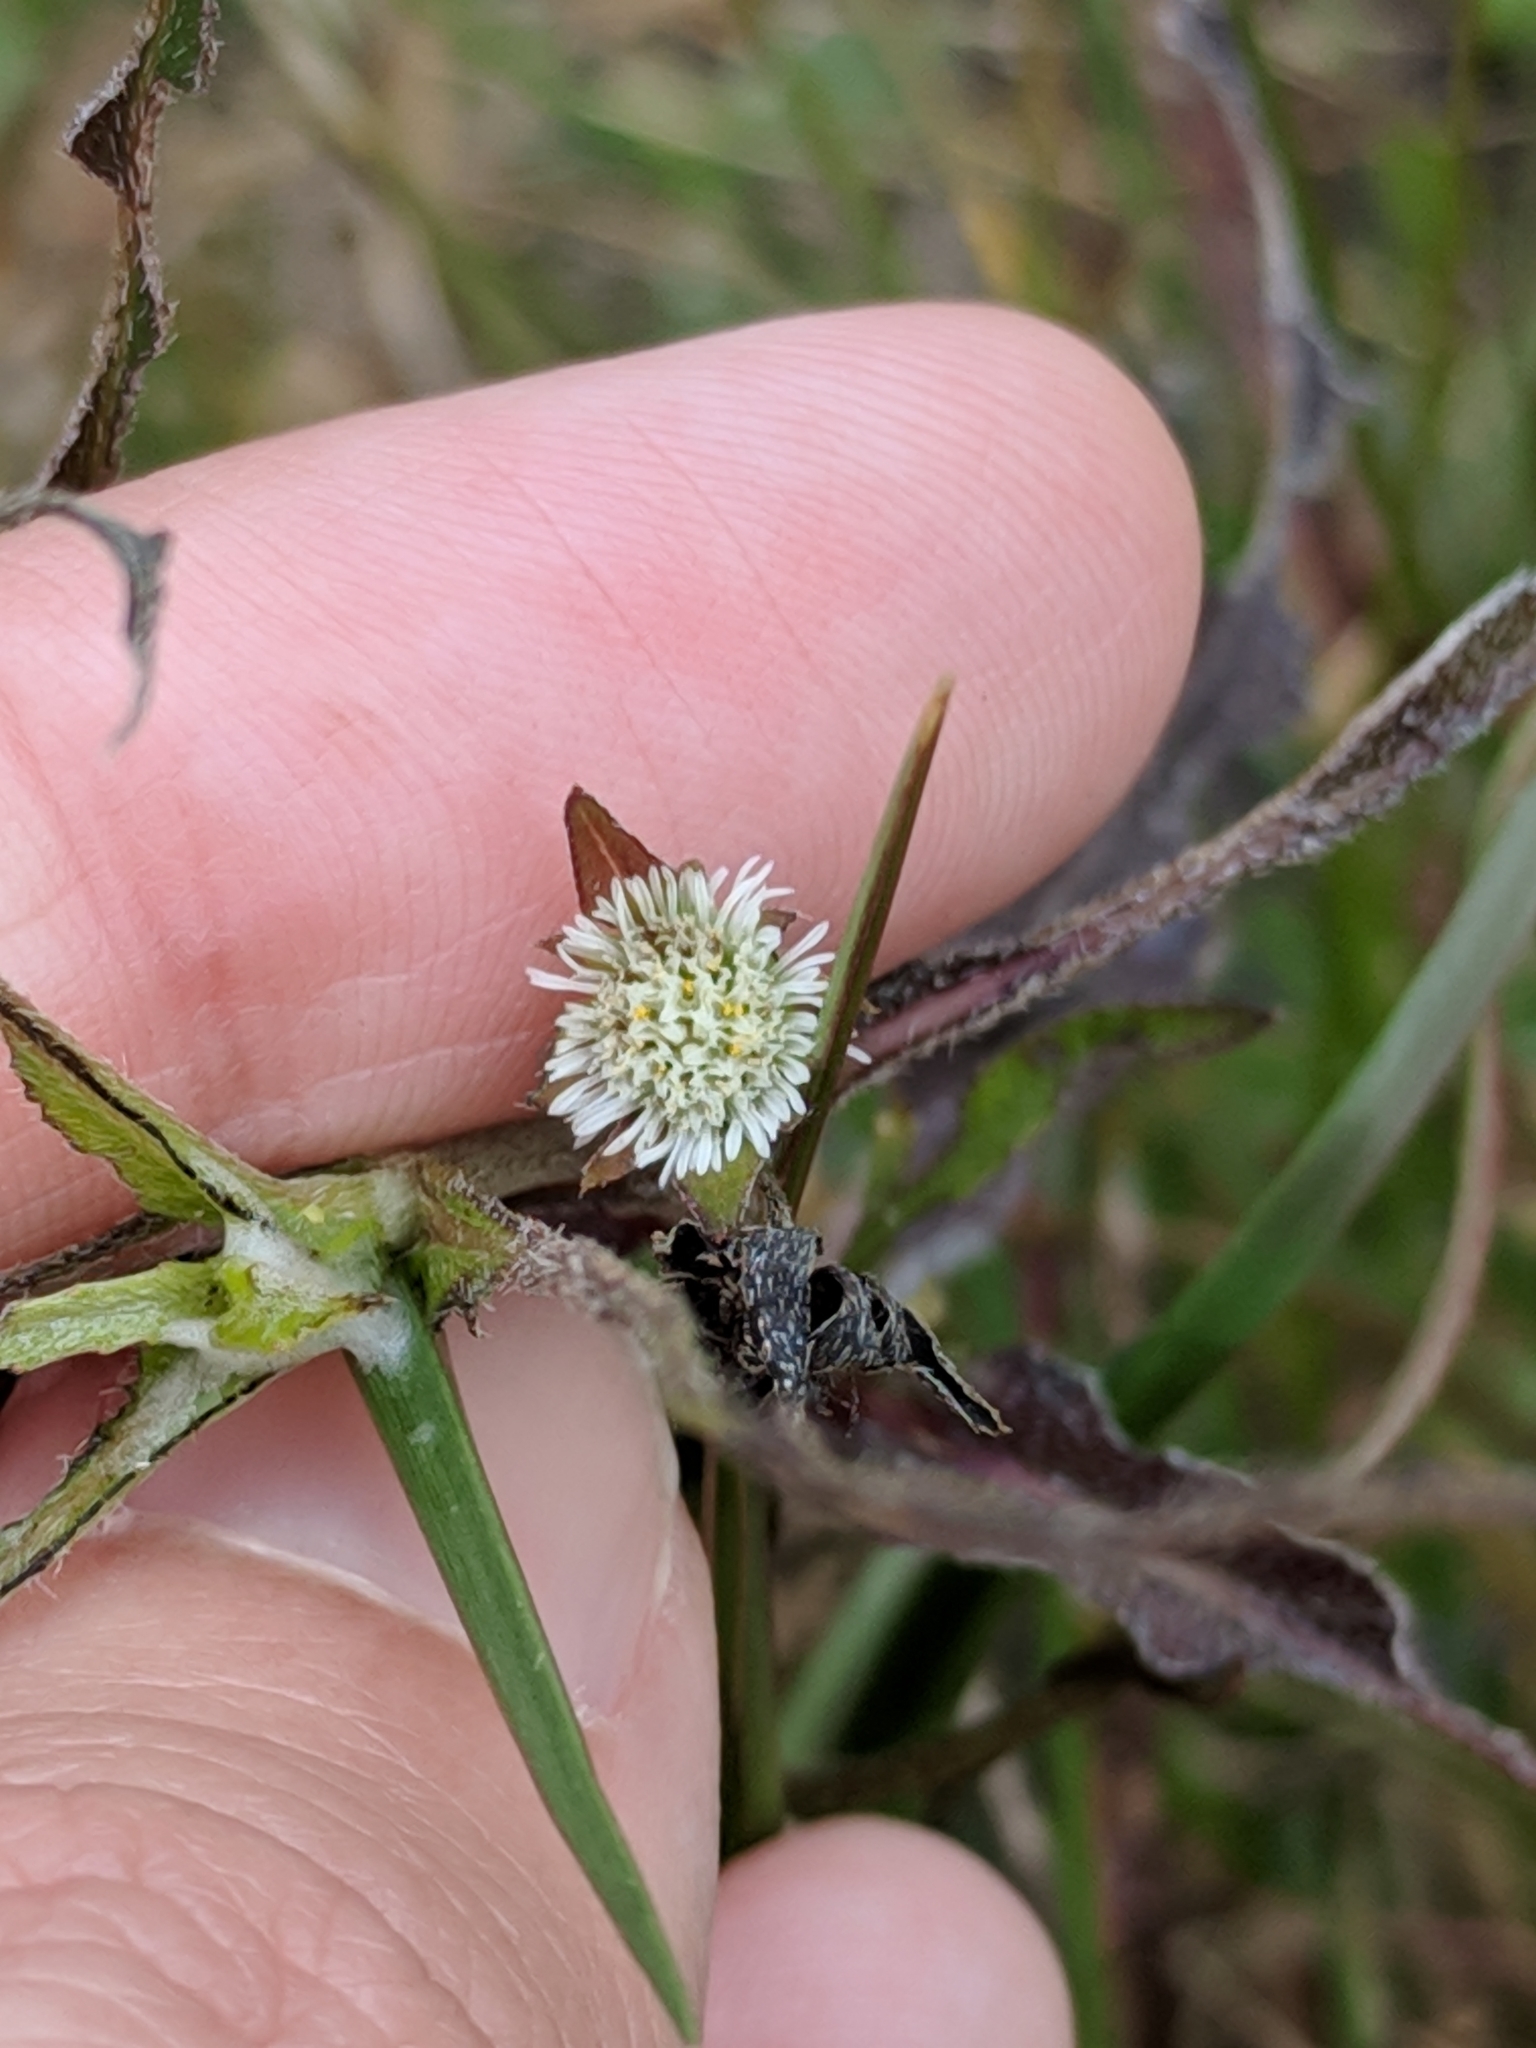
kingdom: Plantae
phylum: Tracheophyta
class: Magnoliopsida
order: Asterales
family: Asteraceae
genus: Eclipta
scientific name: Eclipta prostrata
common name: False daisy
